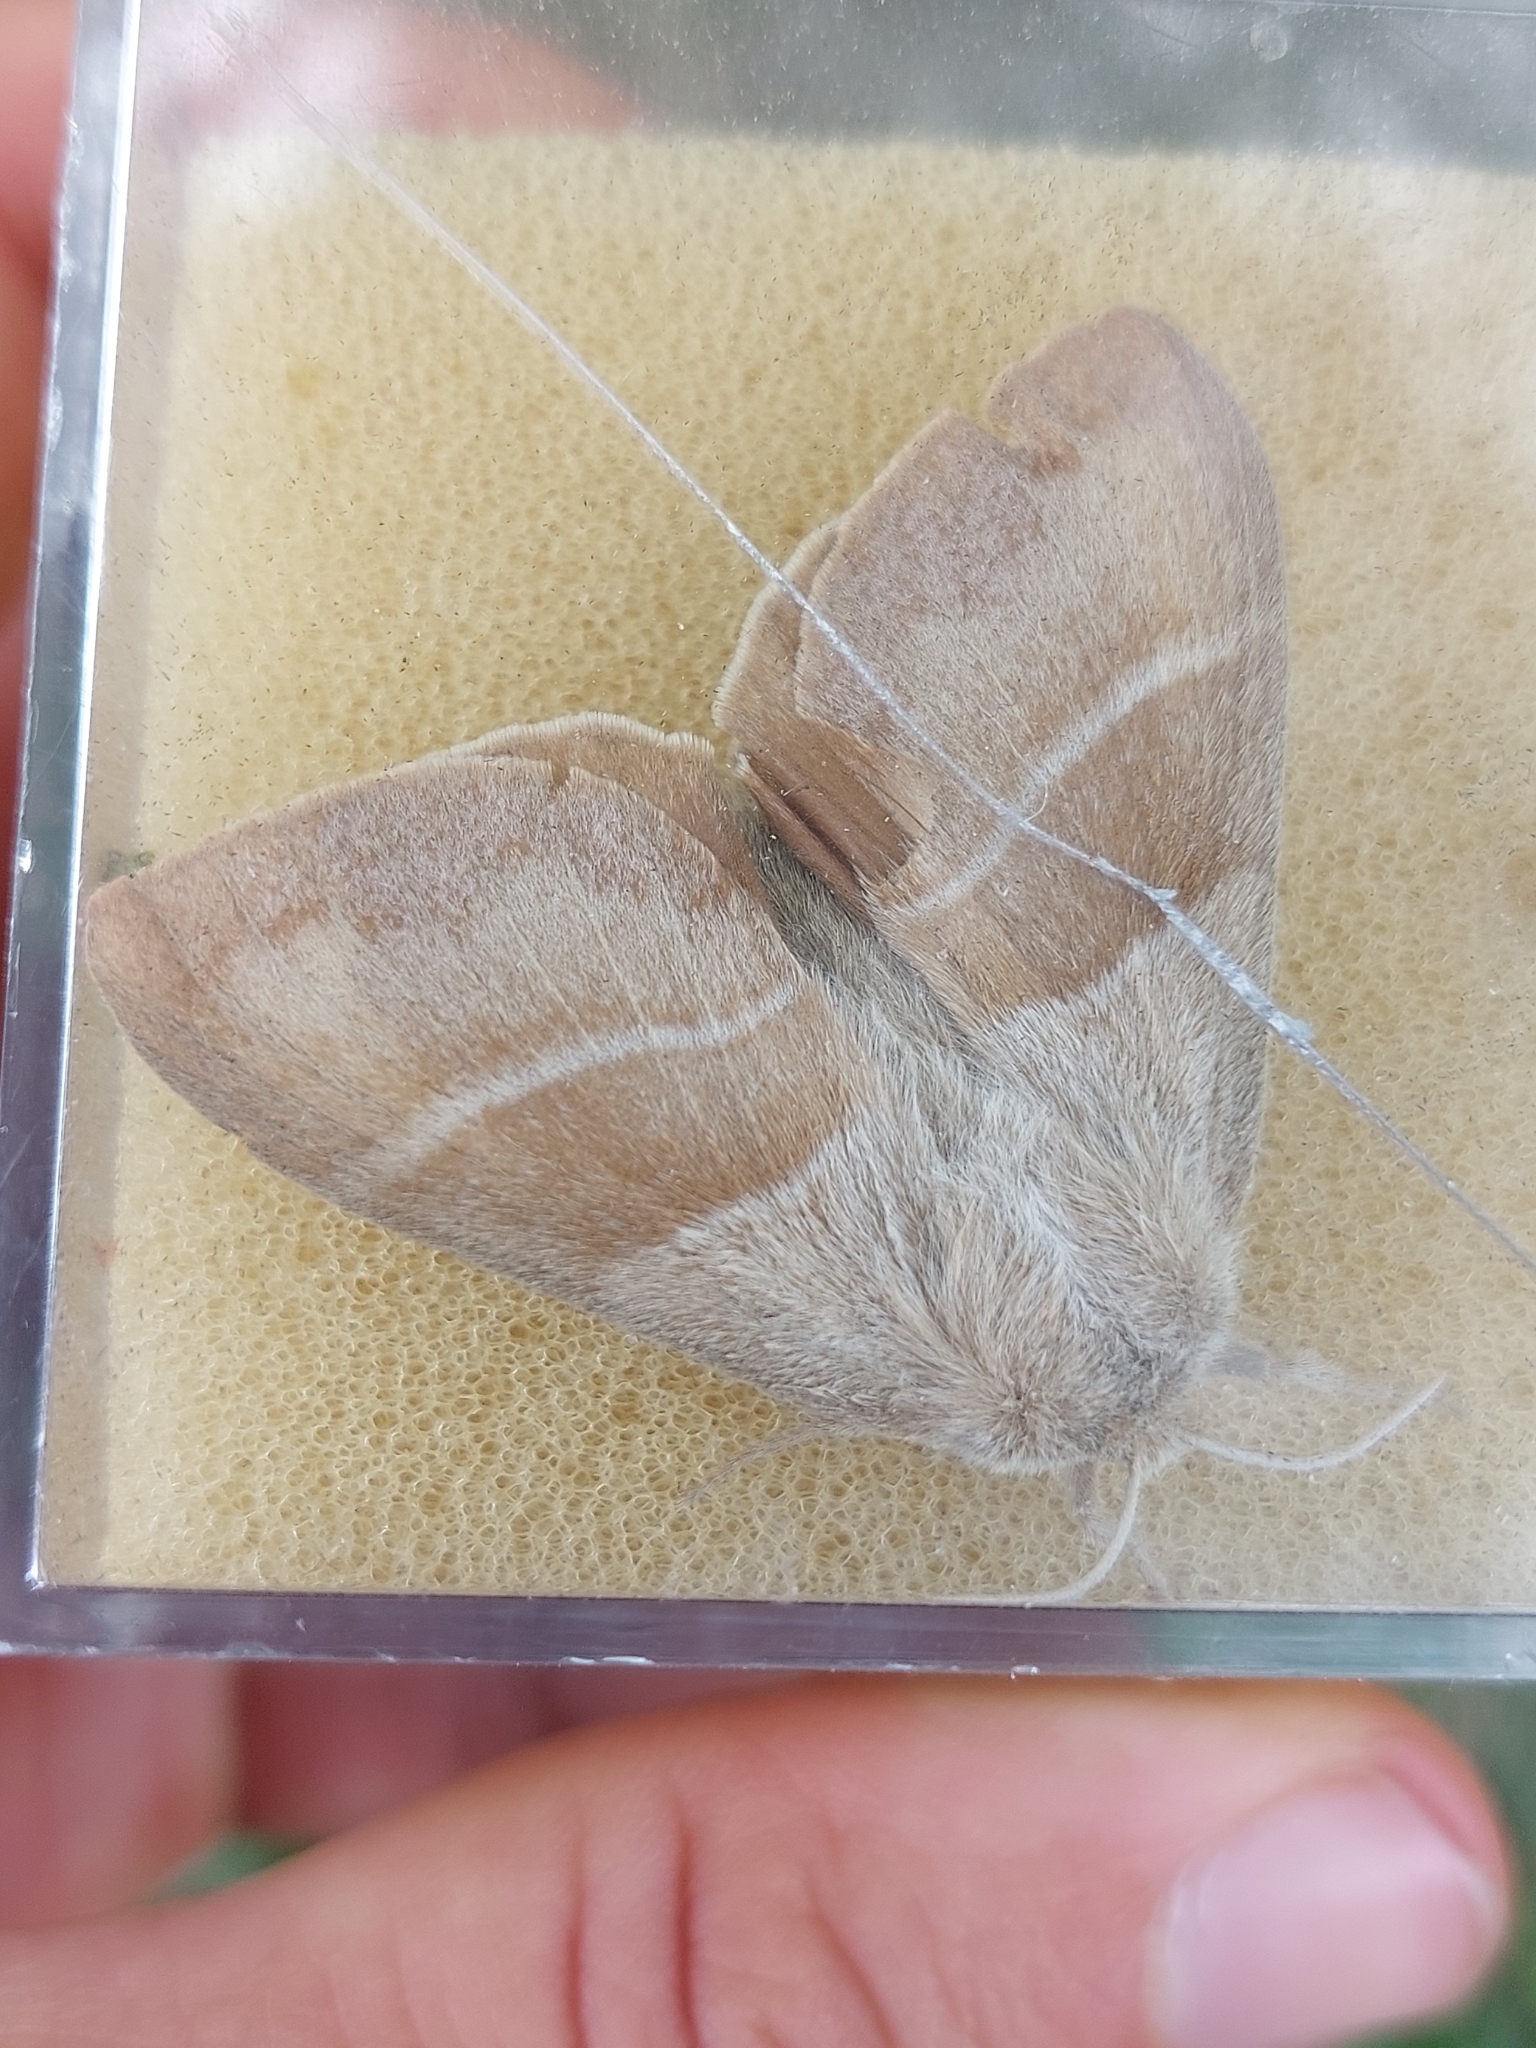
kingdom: Animalia
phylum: Arthropoda
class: Insecta
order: Lepidoptera
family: Lasiocampidae
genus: Macrothylacia
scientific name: Macrothylacia rubi
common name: Fox moth
